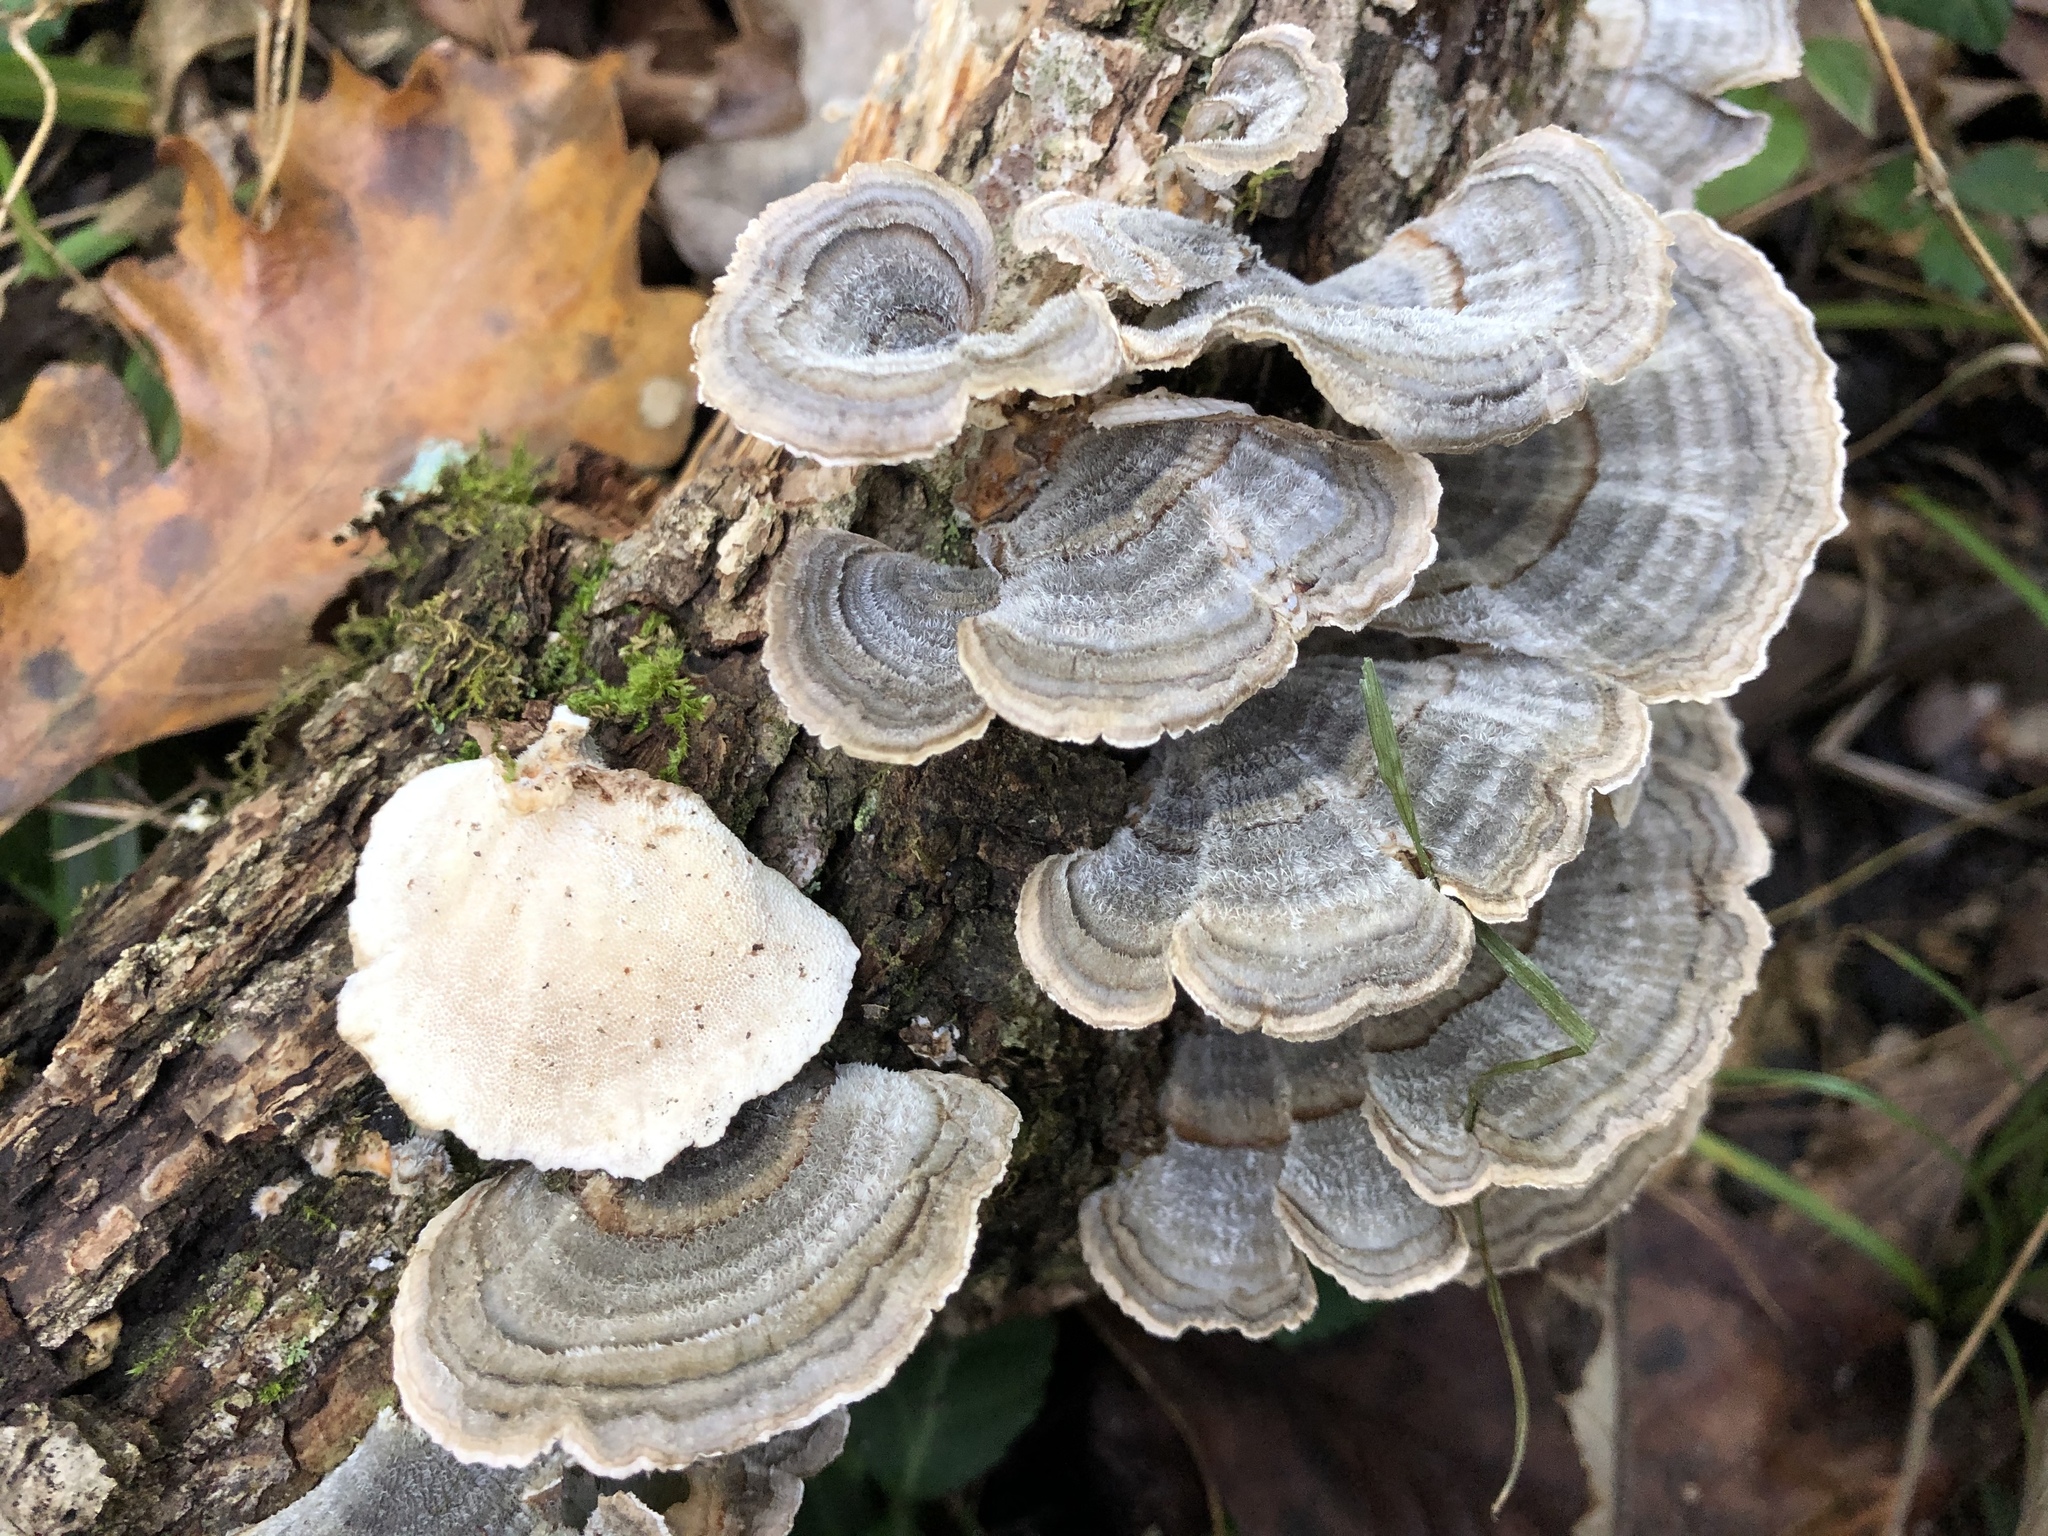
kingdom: Fungi
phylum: Basidiomycota
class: Agaricomycetes
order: Polyporales
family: Polyporaceae
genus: Trametes
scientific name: Trametes versicolor
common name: Turkeytail
